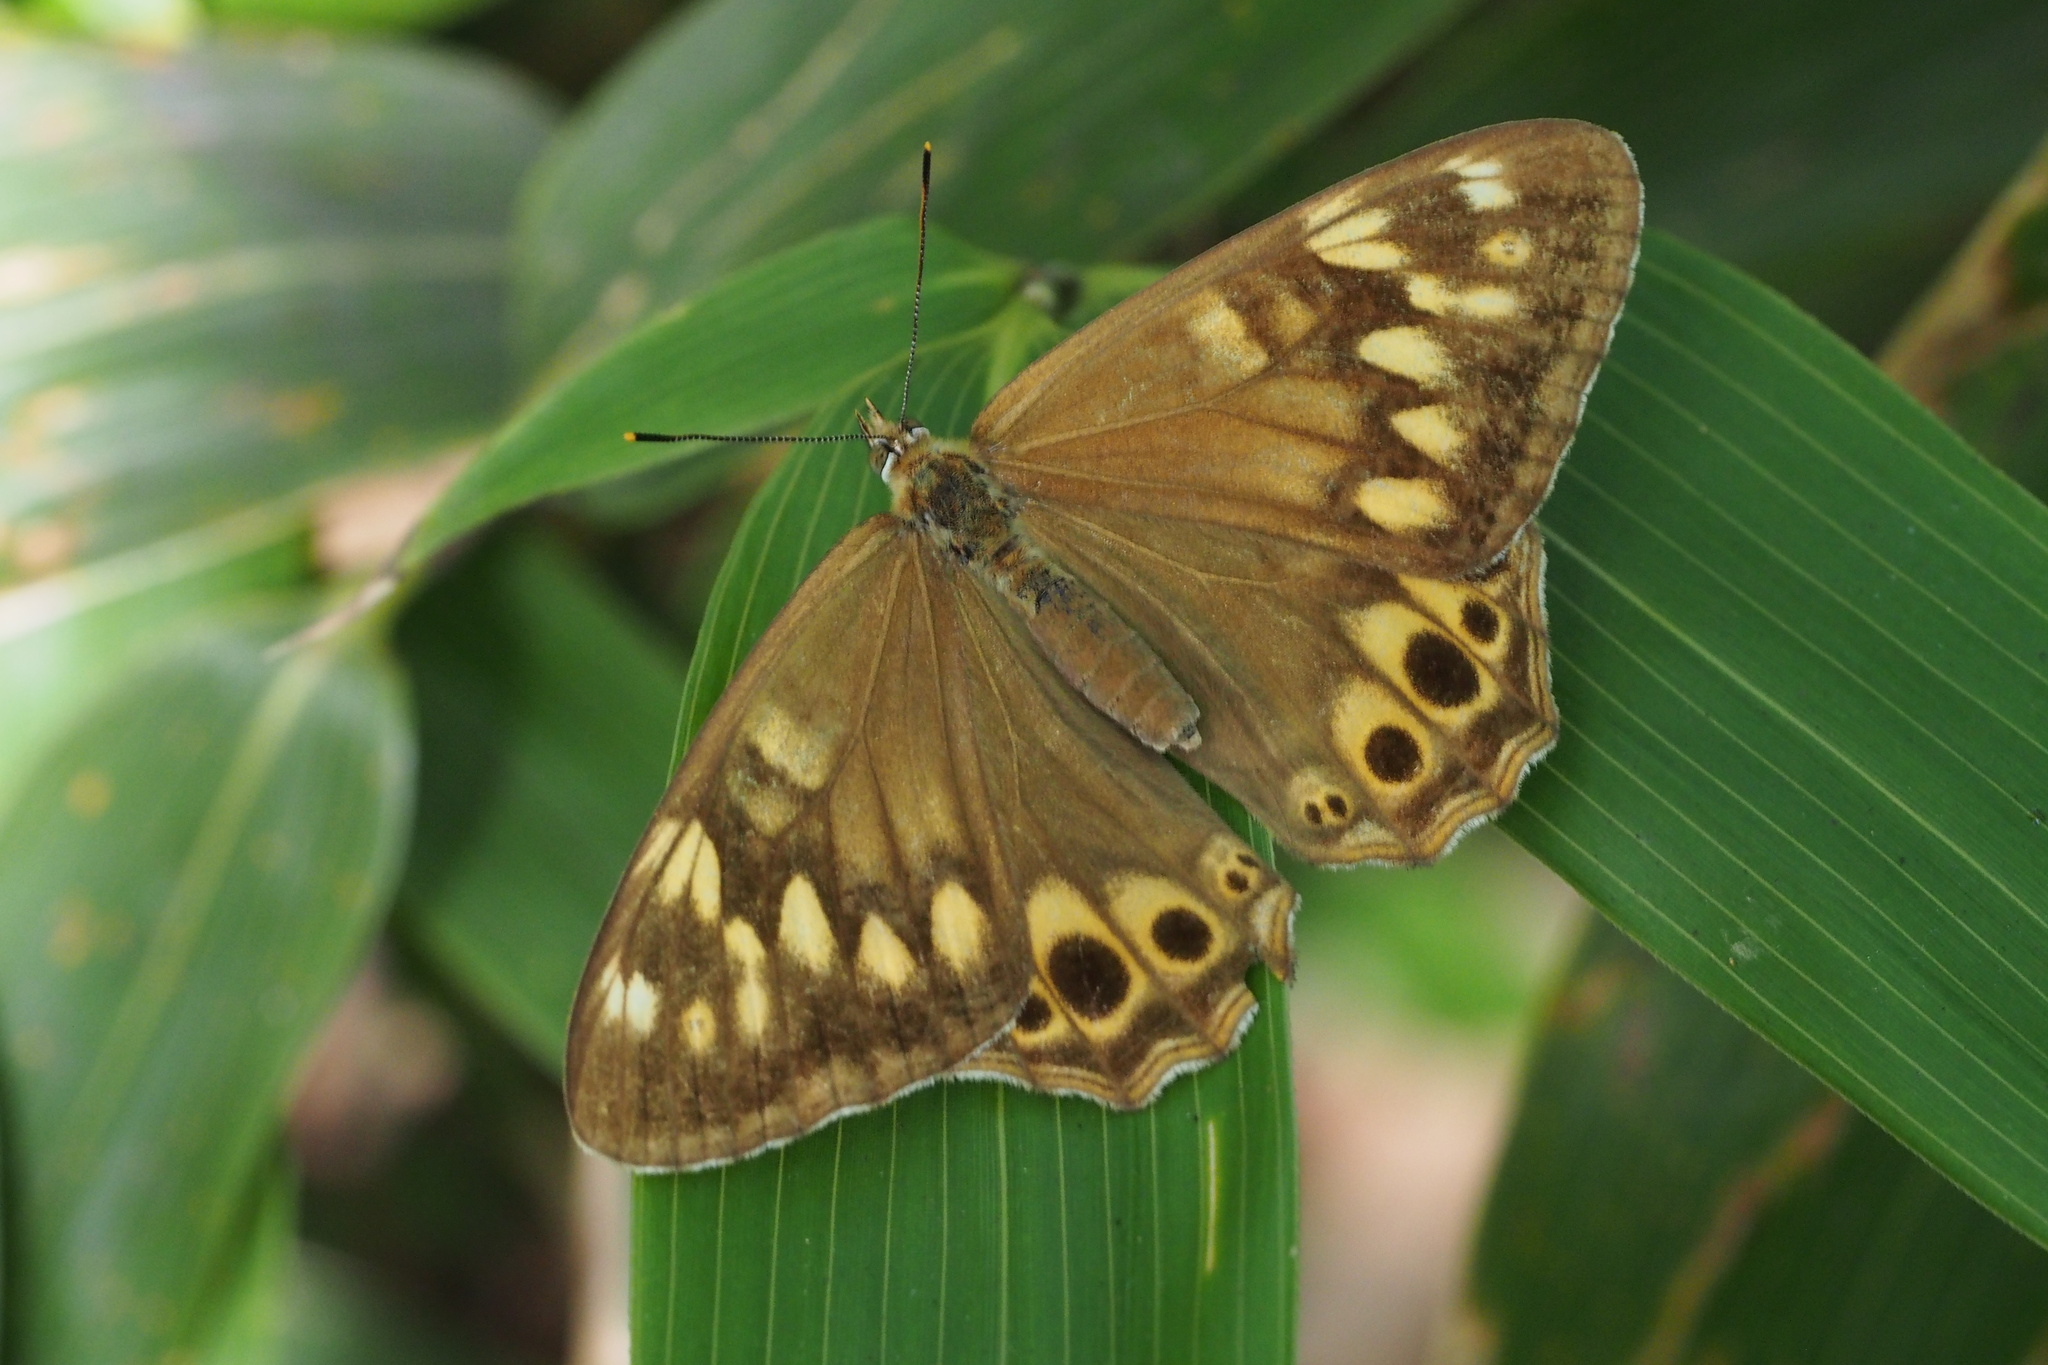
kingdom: Animalia
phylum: Arthropoda
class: Insecta
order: Lepidoptera
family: Nymphalidae
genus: Lethe
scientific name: Lethe callipteris
